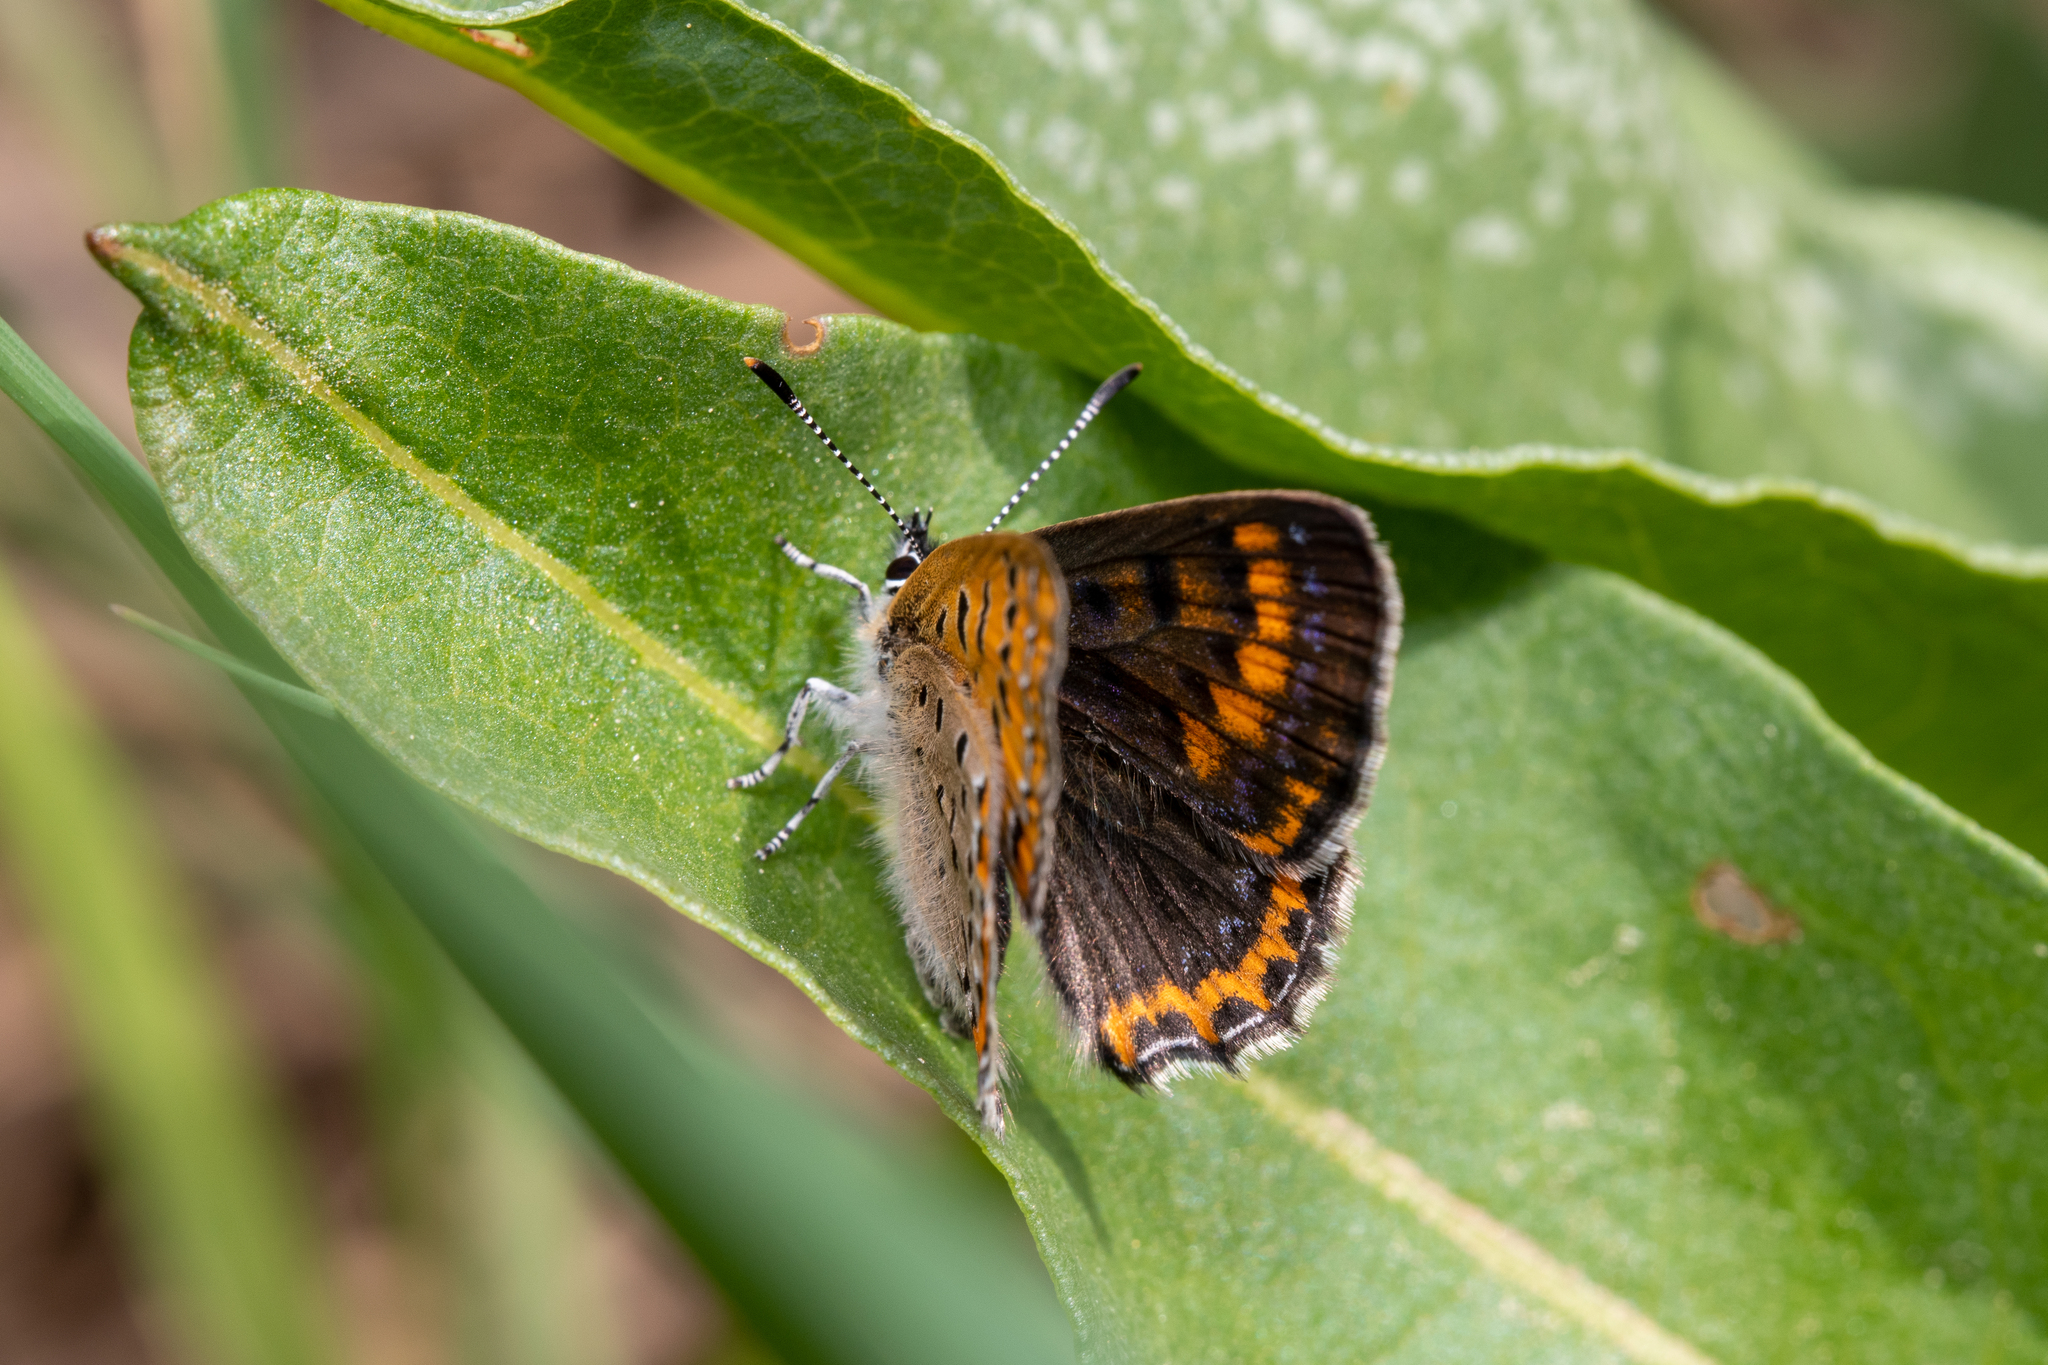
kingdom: Animalia
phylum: Arthropoda
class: Insecta
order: Lepidoptera
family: Lycaenidae
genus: Helleia
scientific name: Helleia helle
